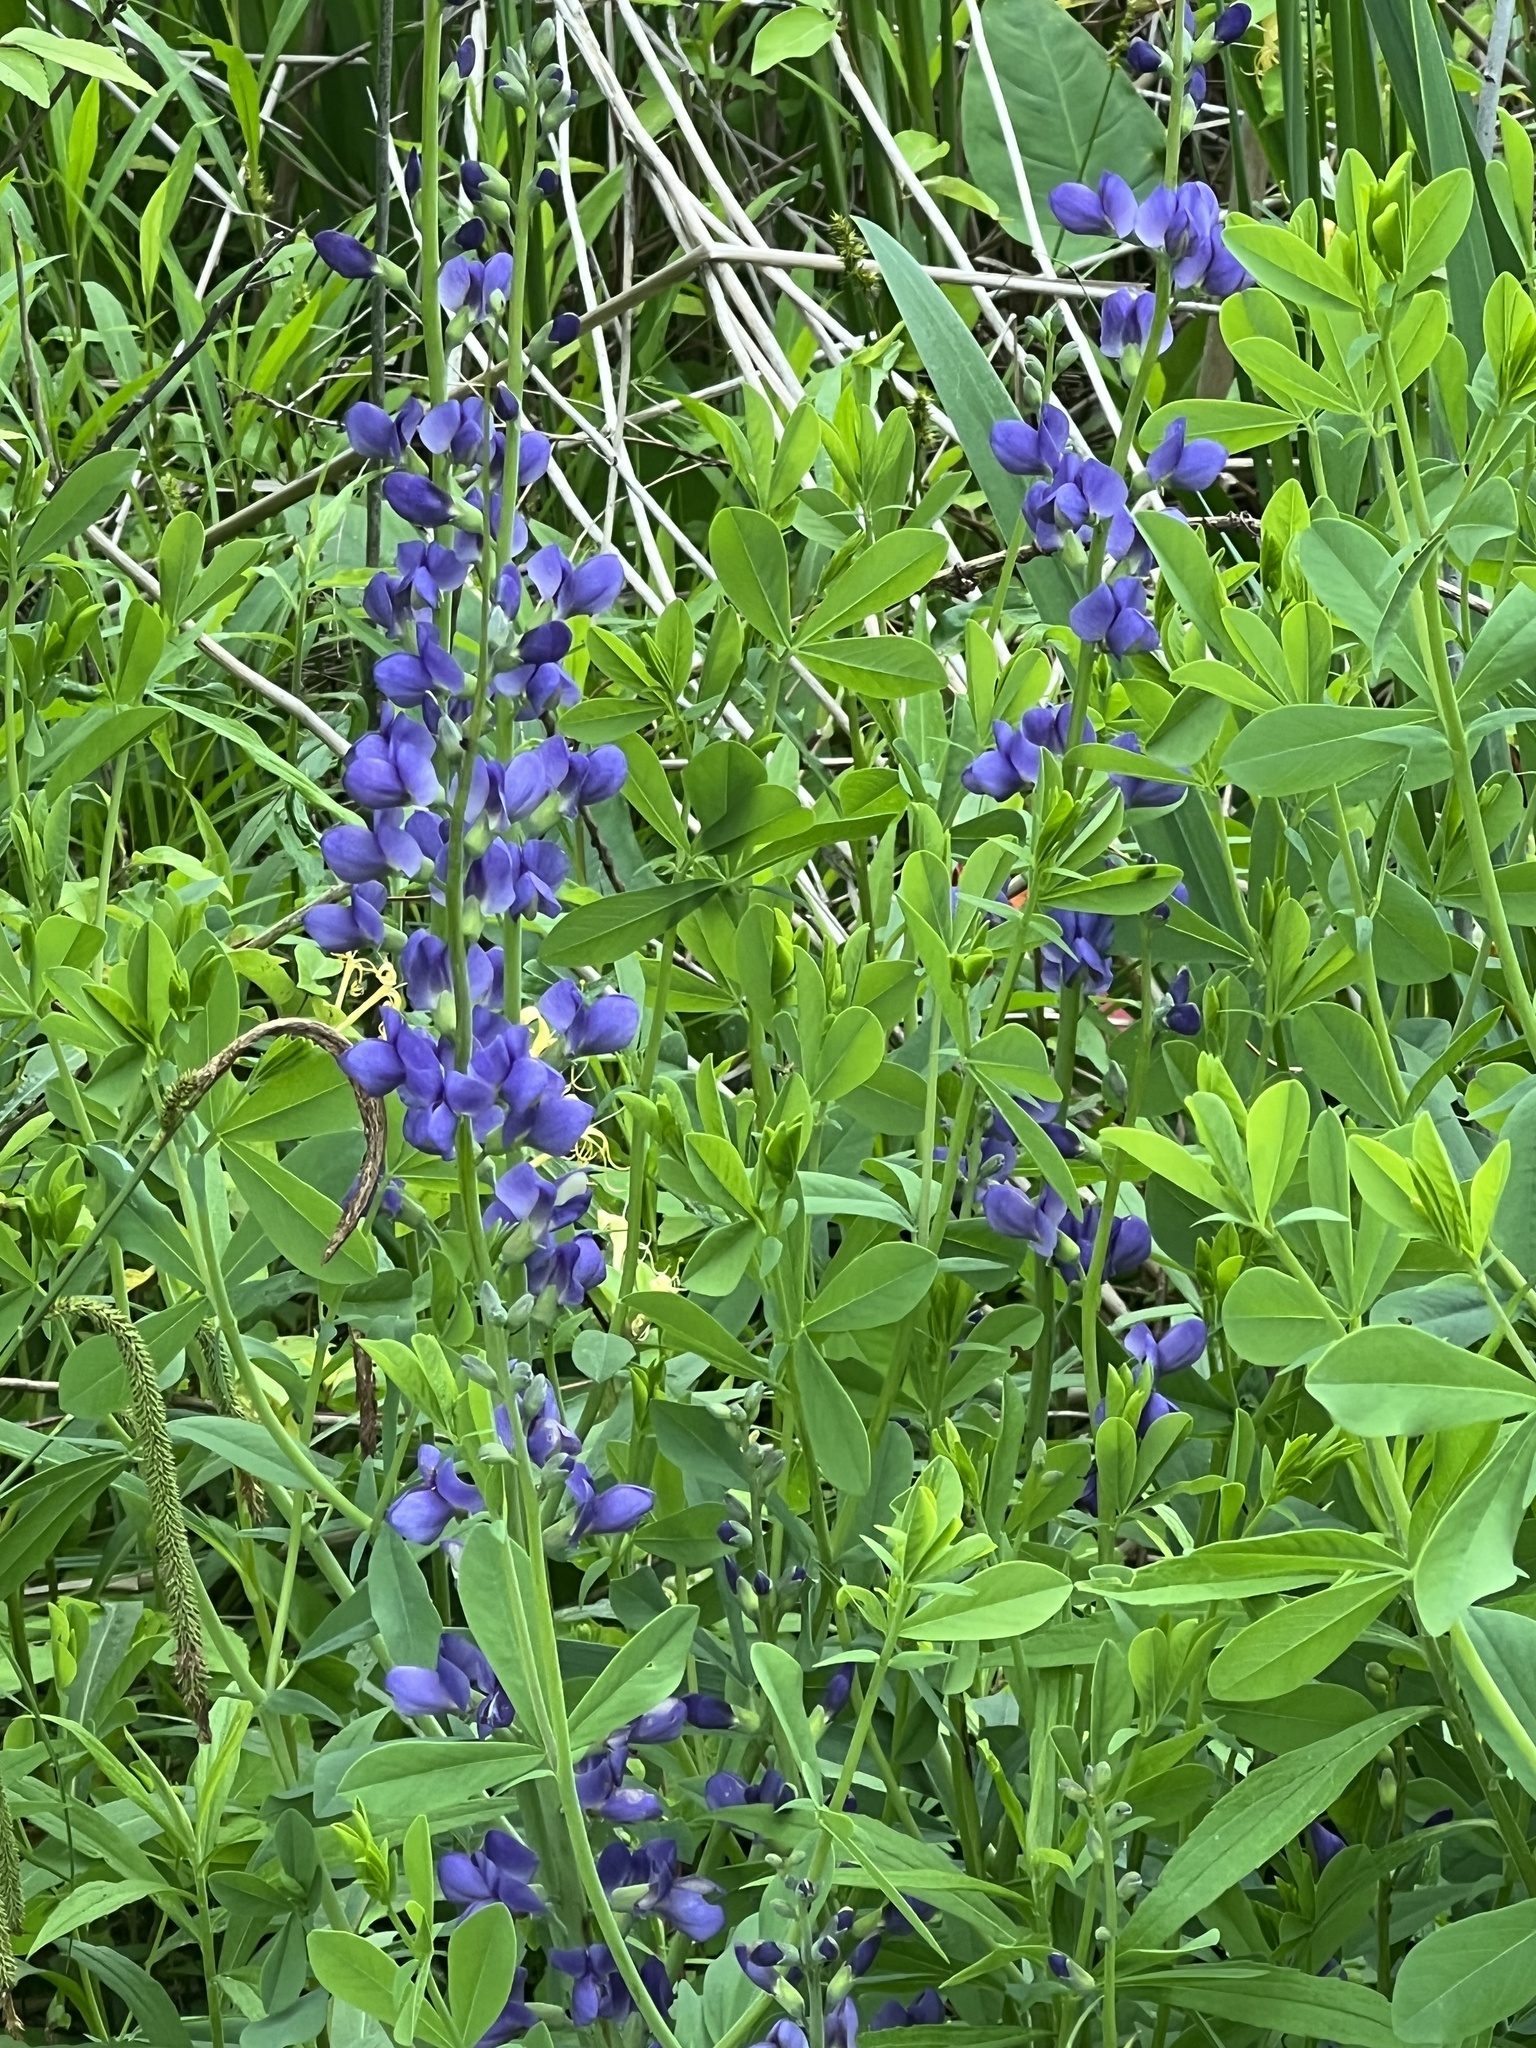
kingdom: Plantae
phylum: Tracheophyta
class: Magnoliopsida
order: Fabales
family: Fabaceae
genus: Baptisia
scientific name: Baptisia australis
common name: Blue false indigo
